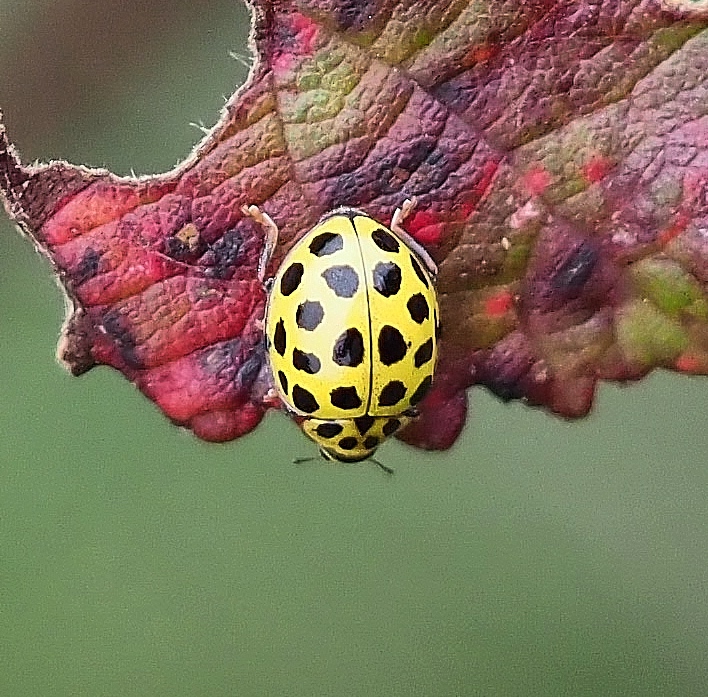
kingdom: Animalia
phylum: Arthropoda
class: Insecta
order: Coleoptera
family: Coccinellidae
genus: Psyllobora
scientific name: Psyllobora vigintiduopunctata
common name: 22-spot ladybird
